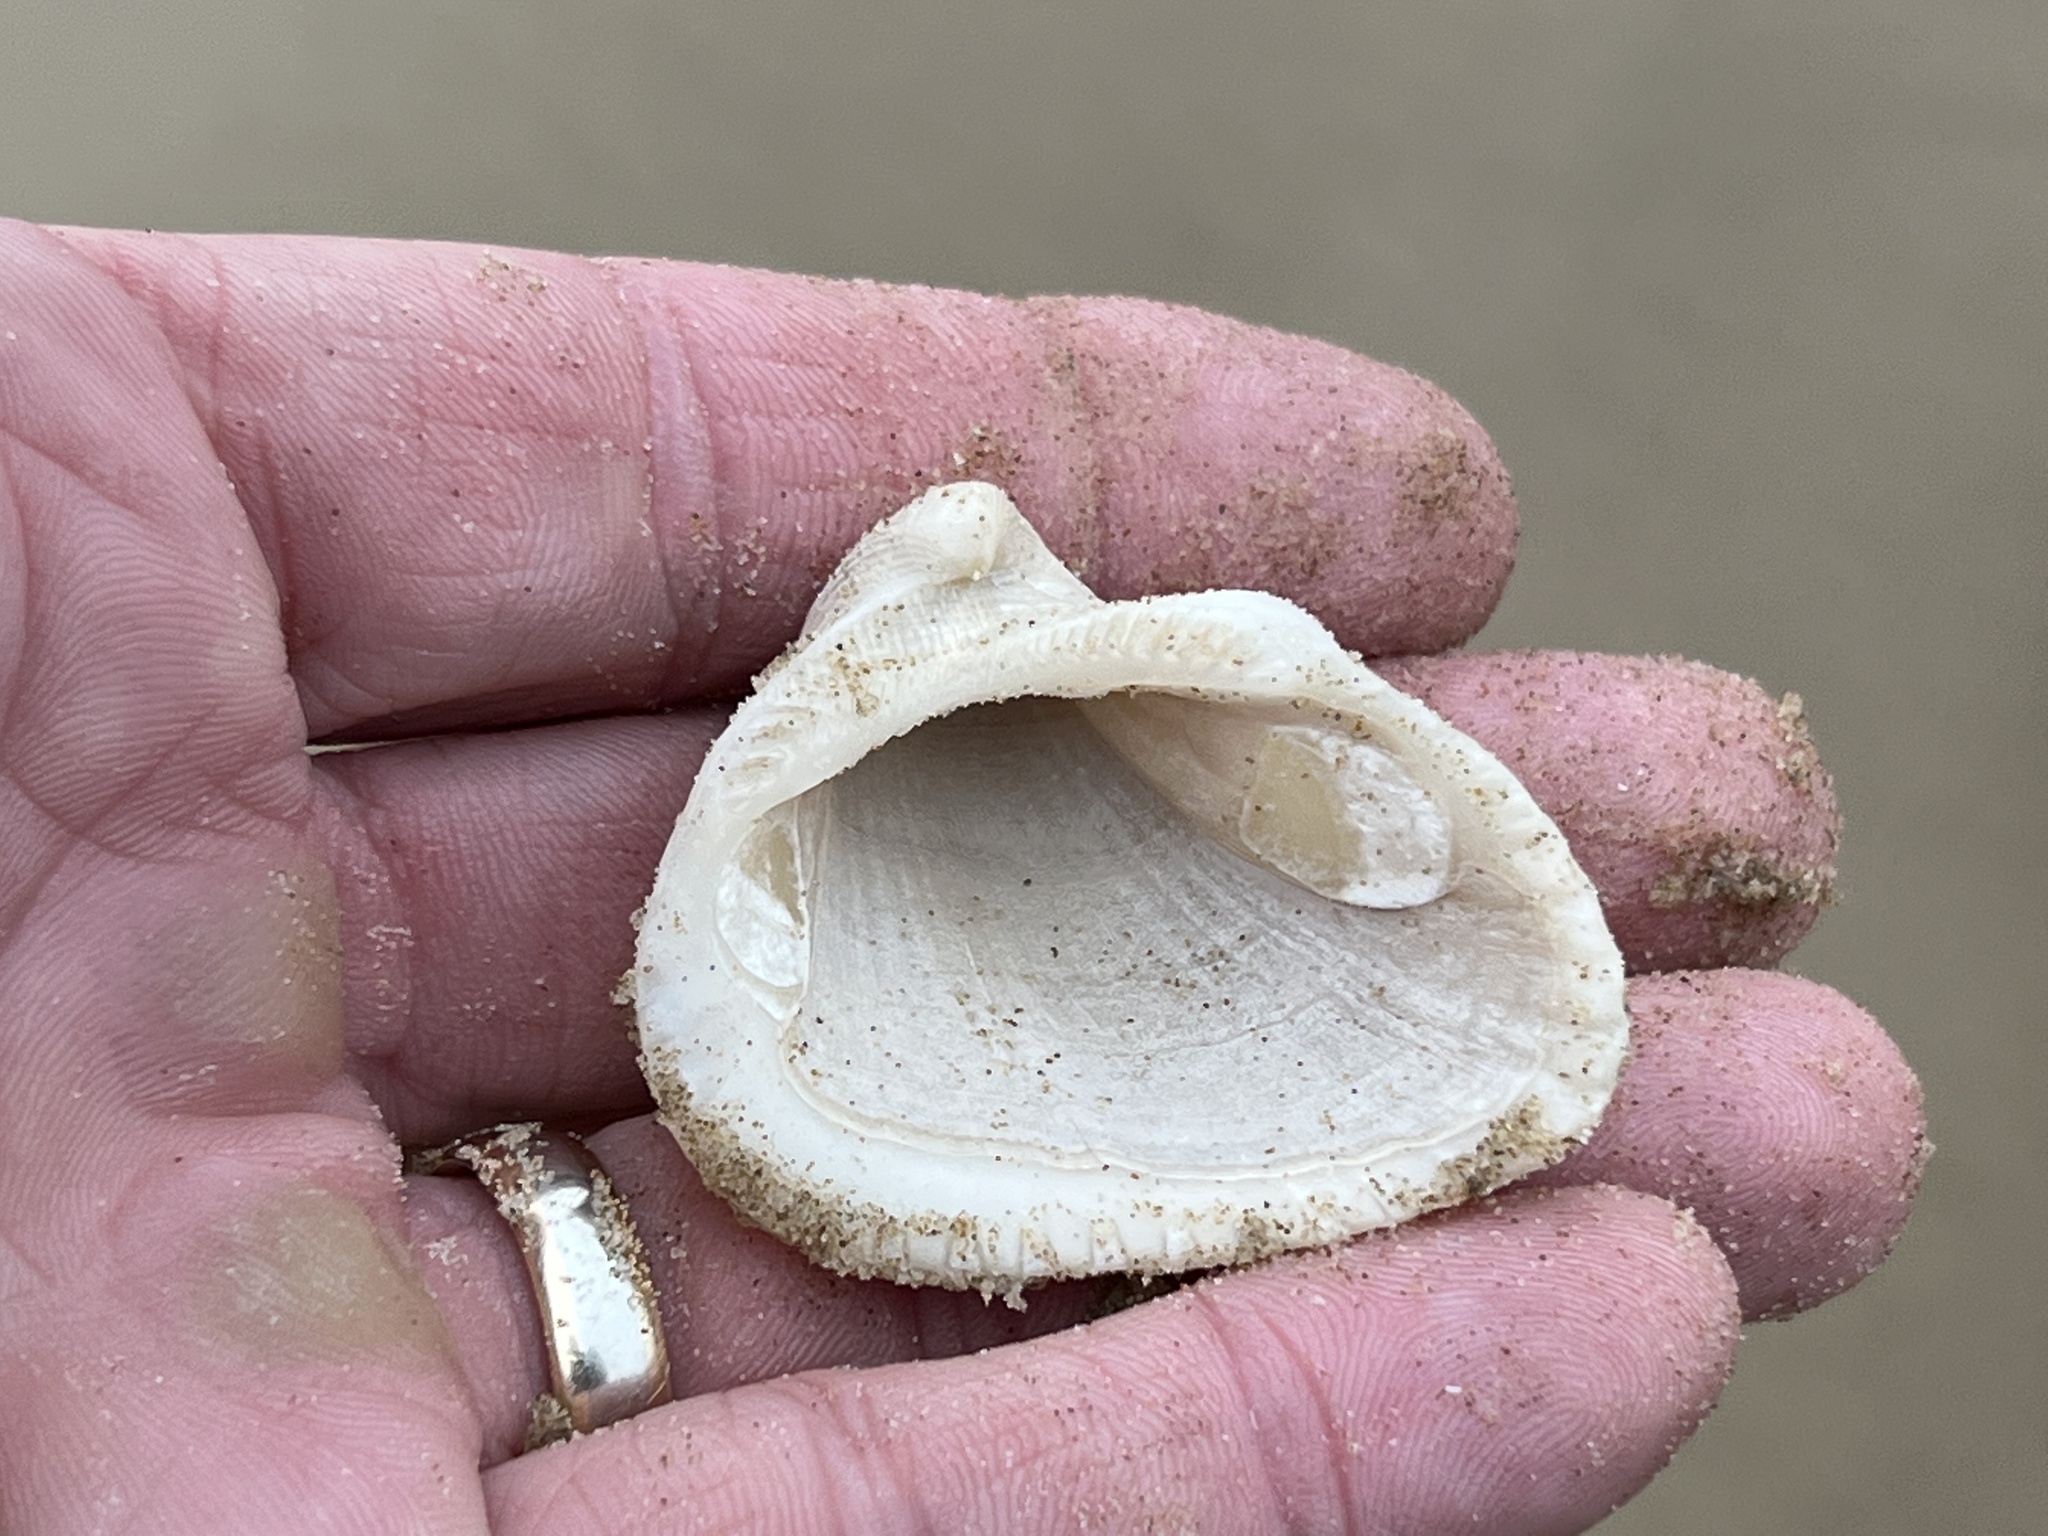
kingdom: Animalia
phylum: Mollusca
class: Bivalvia
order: Arcida
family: Noetiidae
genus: Noetia
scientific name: Noetia ponderosa
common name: Ponderous ark
